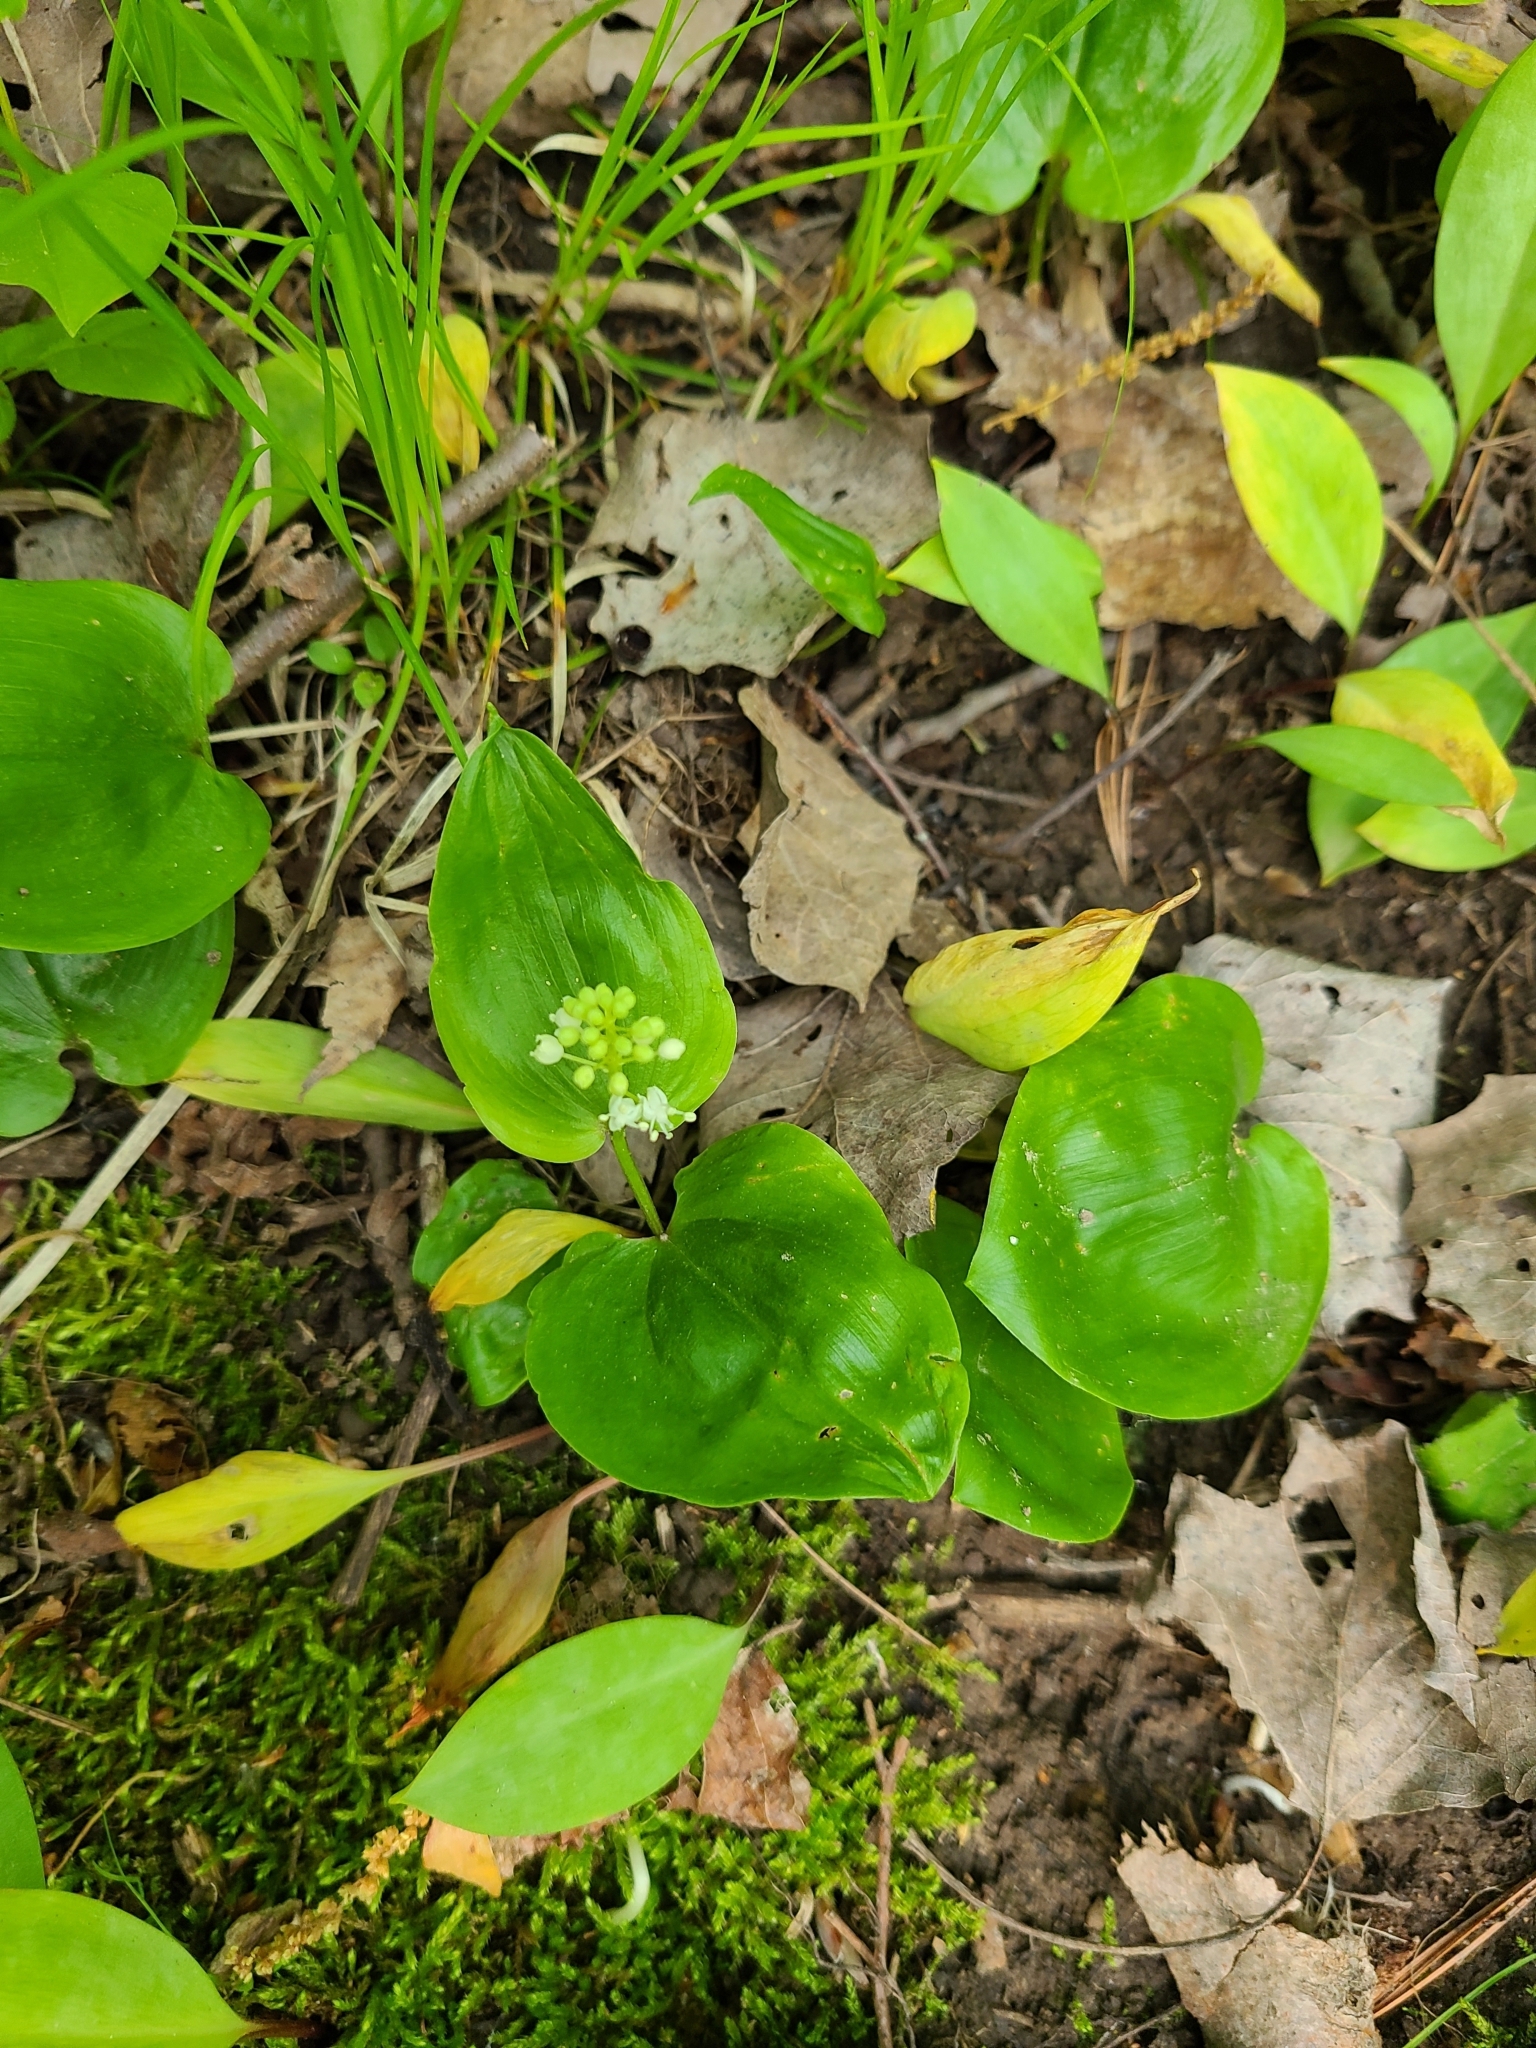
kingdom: Plantae
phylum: Tracheophyta
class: Liliopsida
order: Asparagales
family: Asparagaceae
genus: Maianthemum
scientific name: Maianthemum canadense
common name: False lily-of-the-valley
